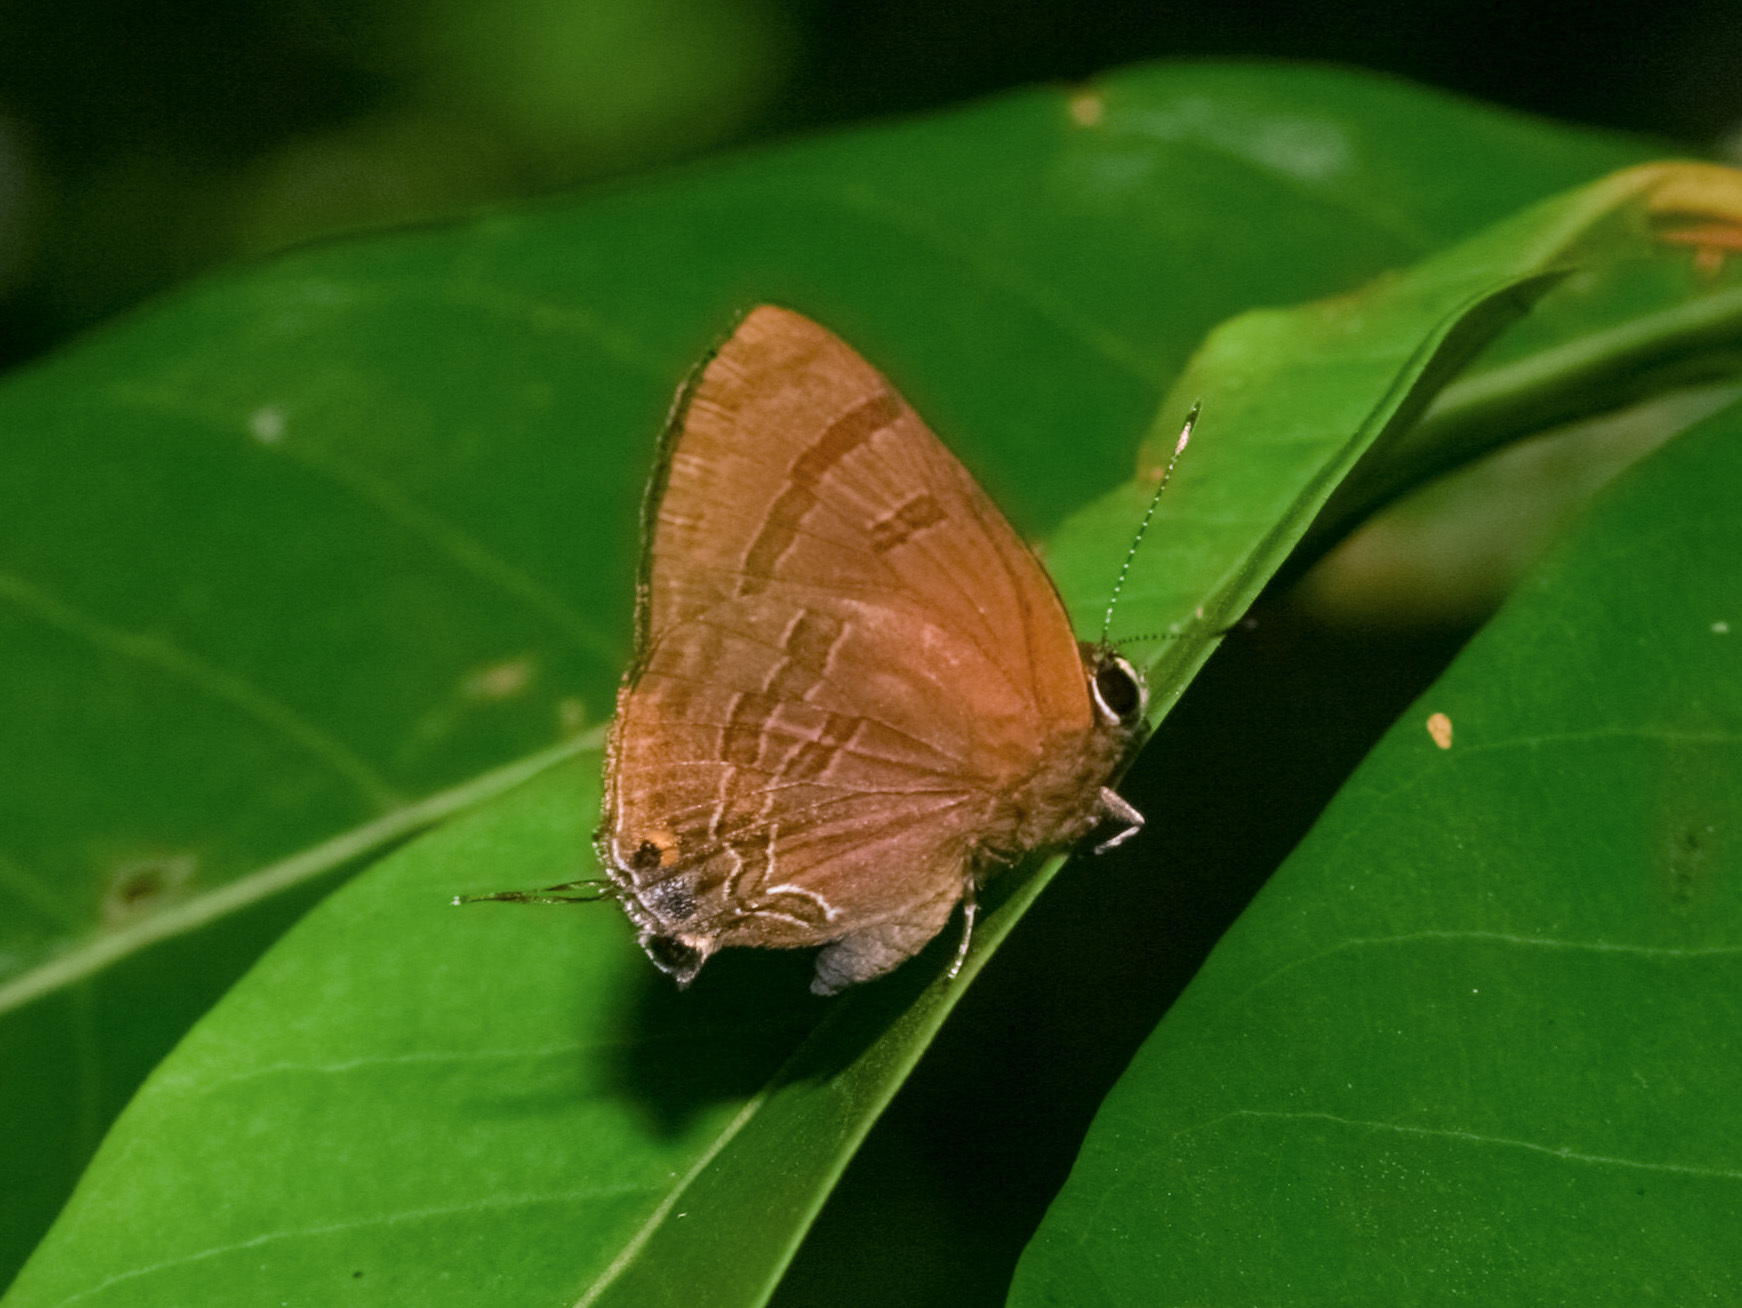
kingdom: Animalia
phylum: Arthropoda
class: Insecta
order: Lepidoptera
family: Lycaenidae
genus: Rapala
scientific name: Rapala varuna
